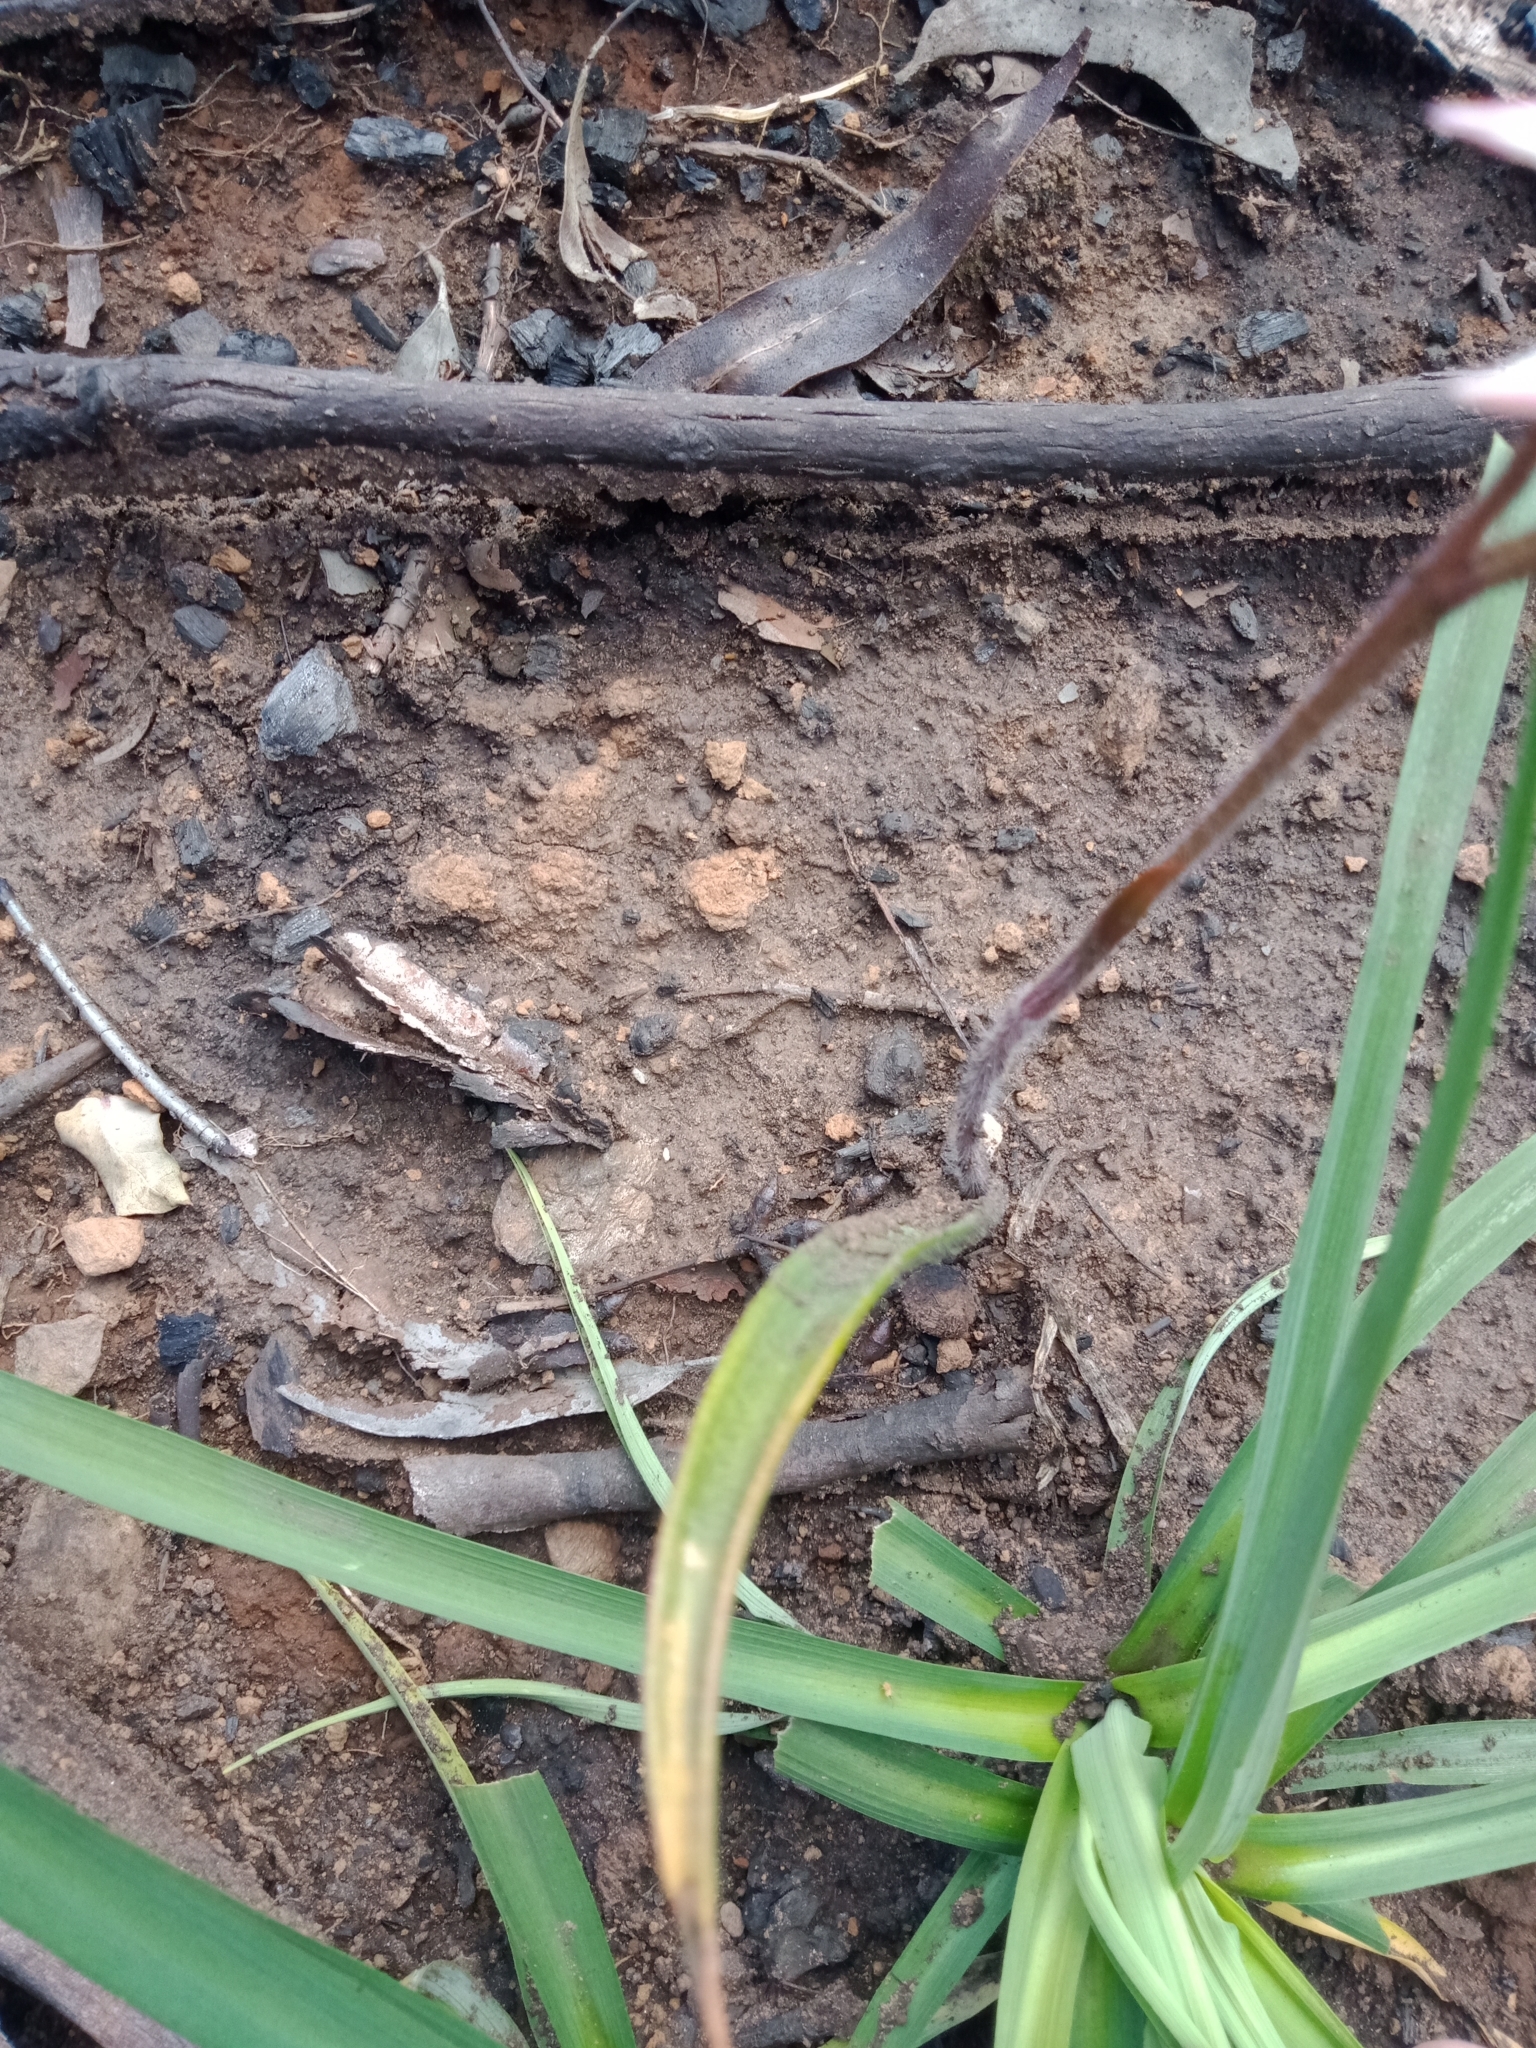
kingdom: Plantae
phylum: Tracheophyta
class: Liliopsida
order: Asparagales
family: Orchidaceae
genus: Caladenia
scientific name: Caladenia alpina
